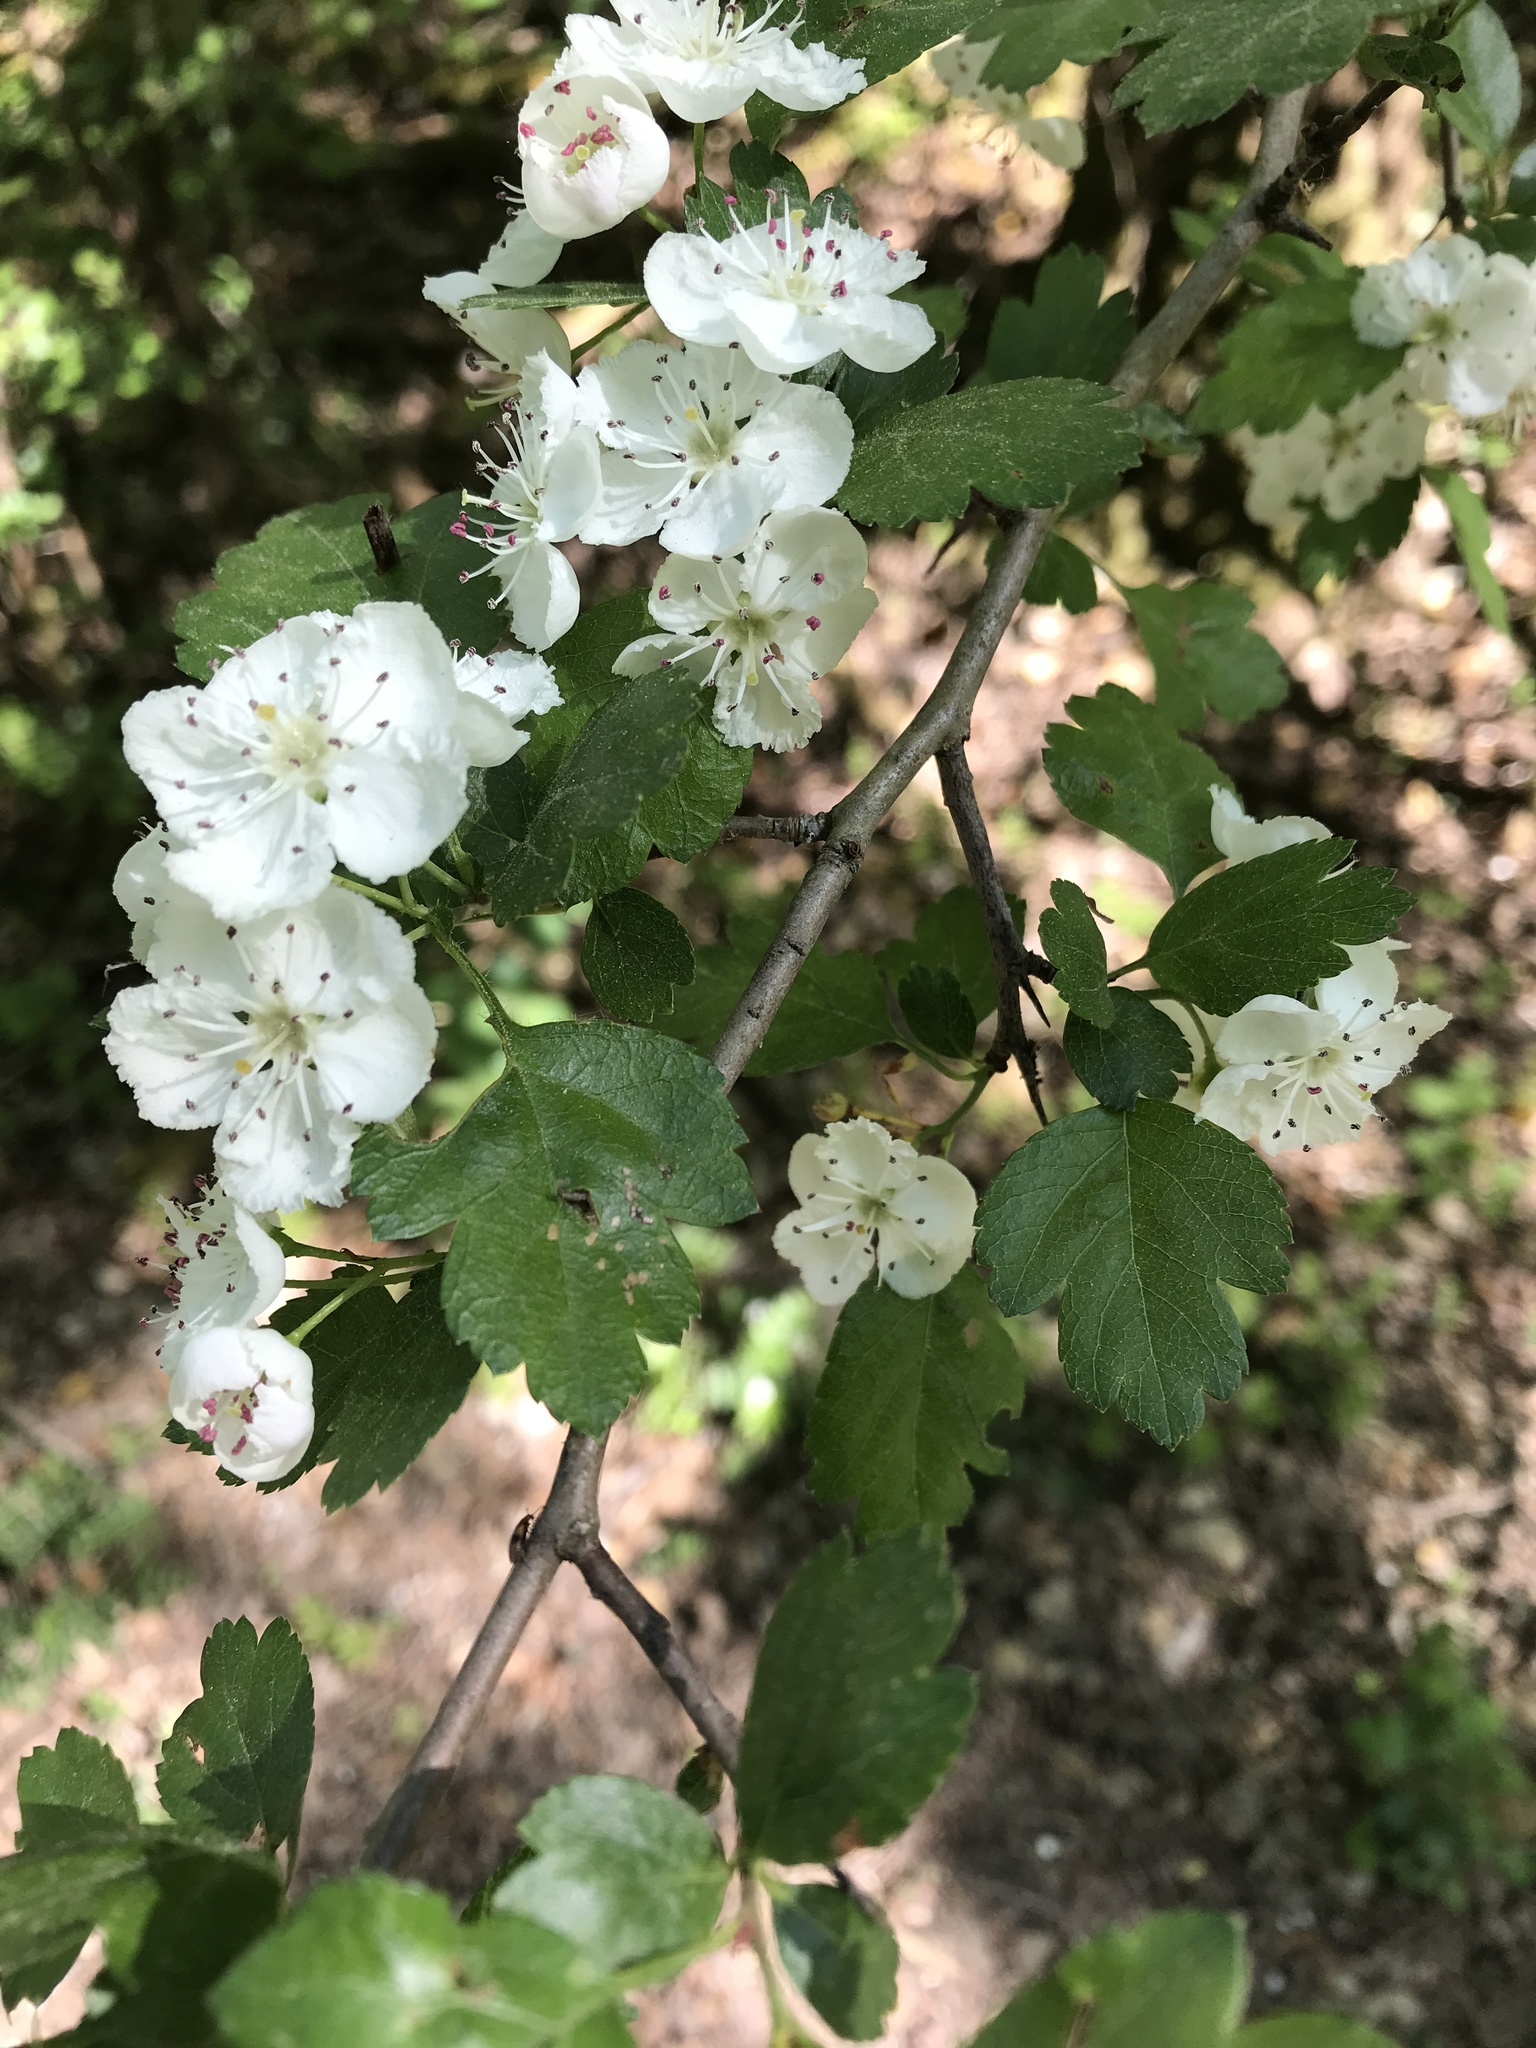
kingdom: Plantae
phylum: Tracheophyta
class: Magnoliopsida
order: Rosales
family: Rosaceae
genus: Crataegus
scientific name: Crataegus monogyna
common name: Hawthorn
